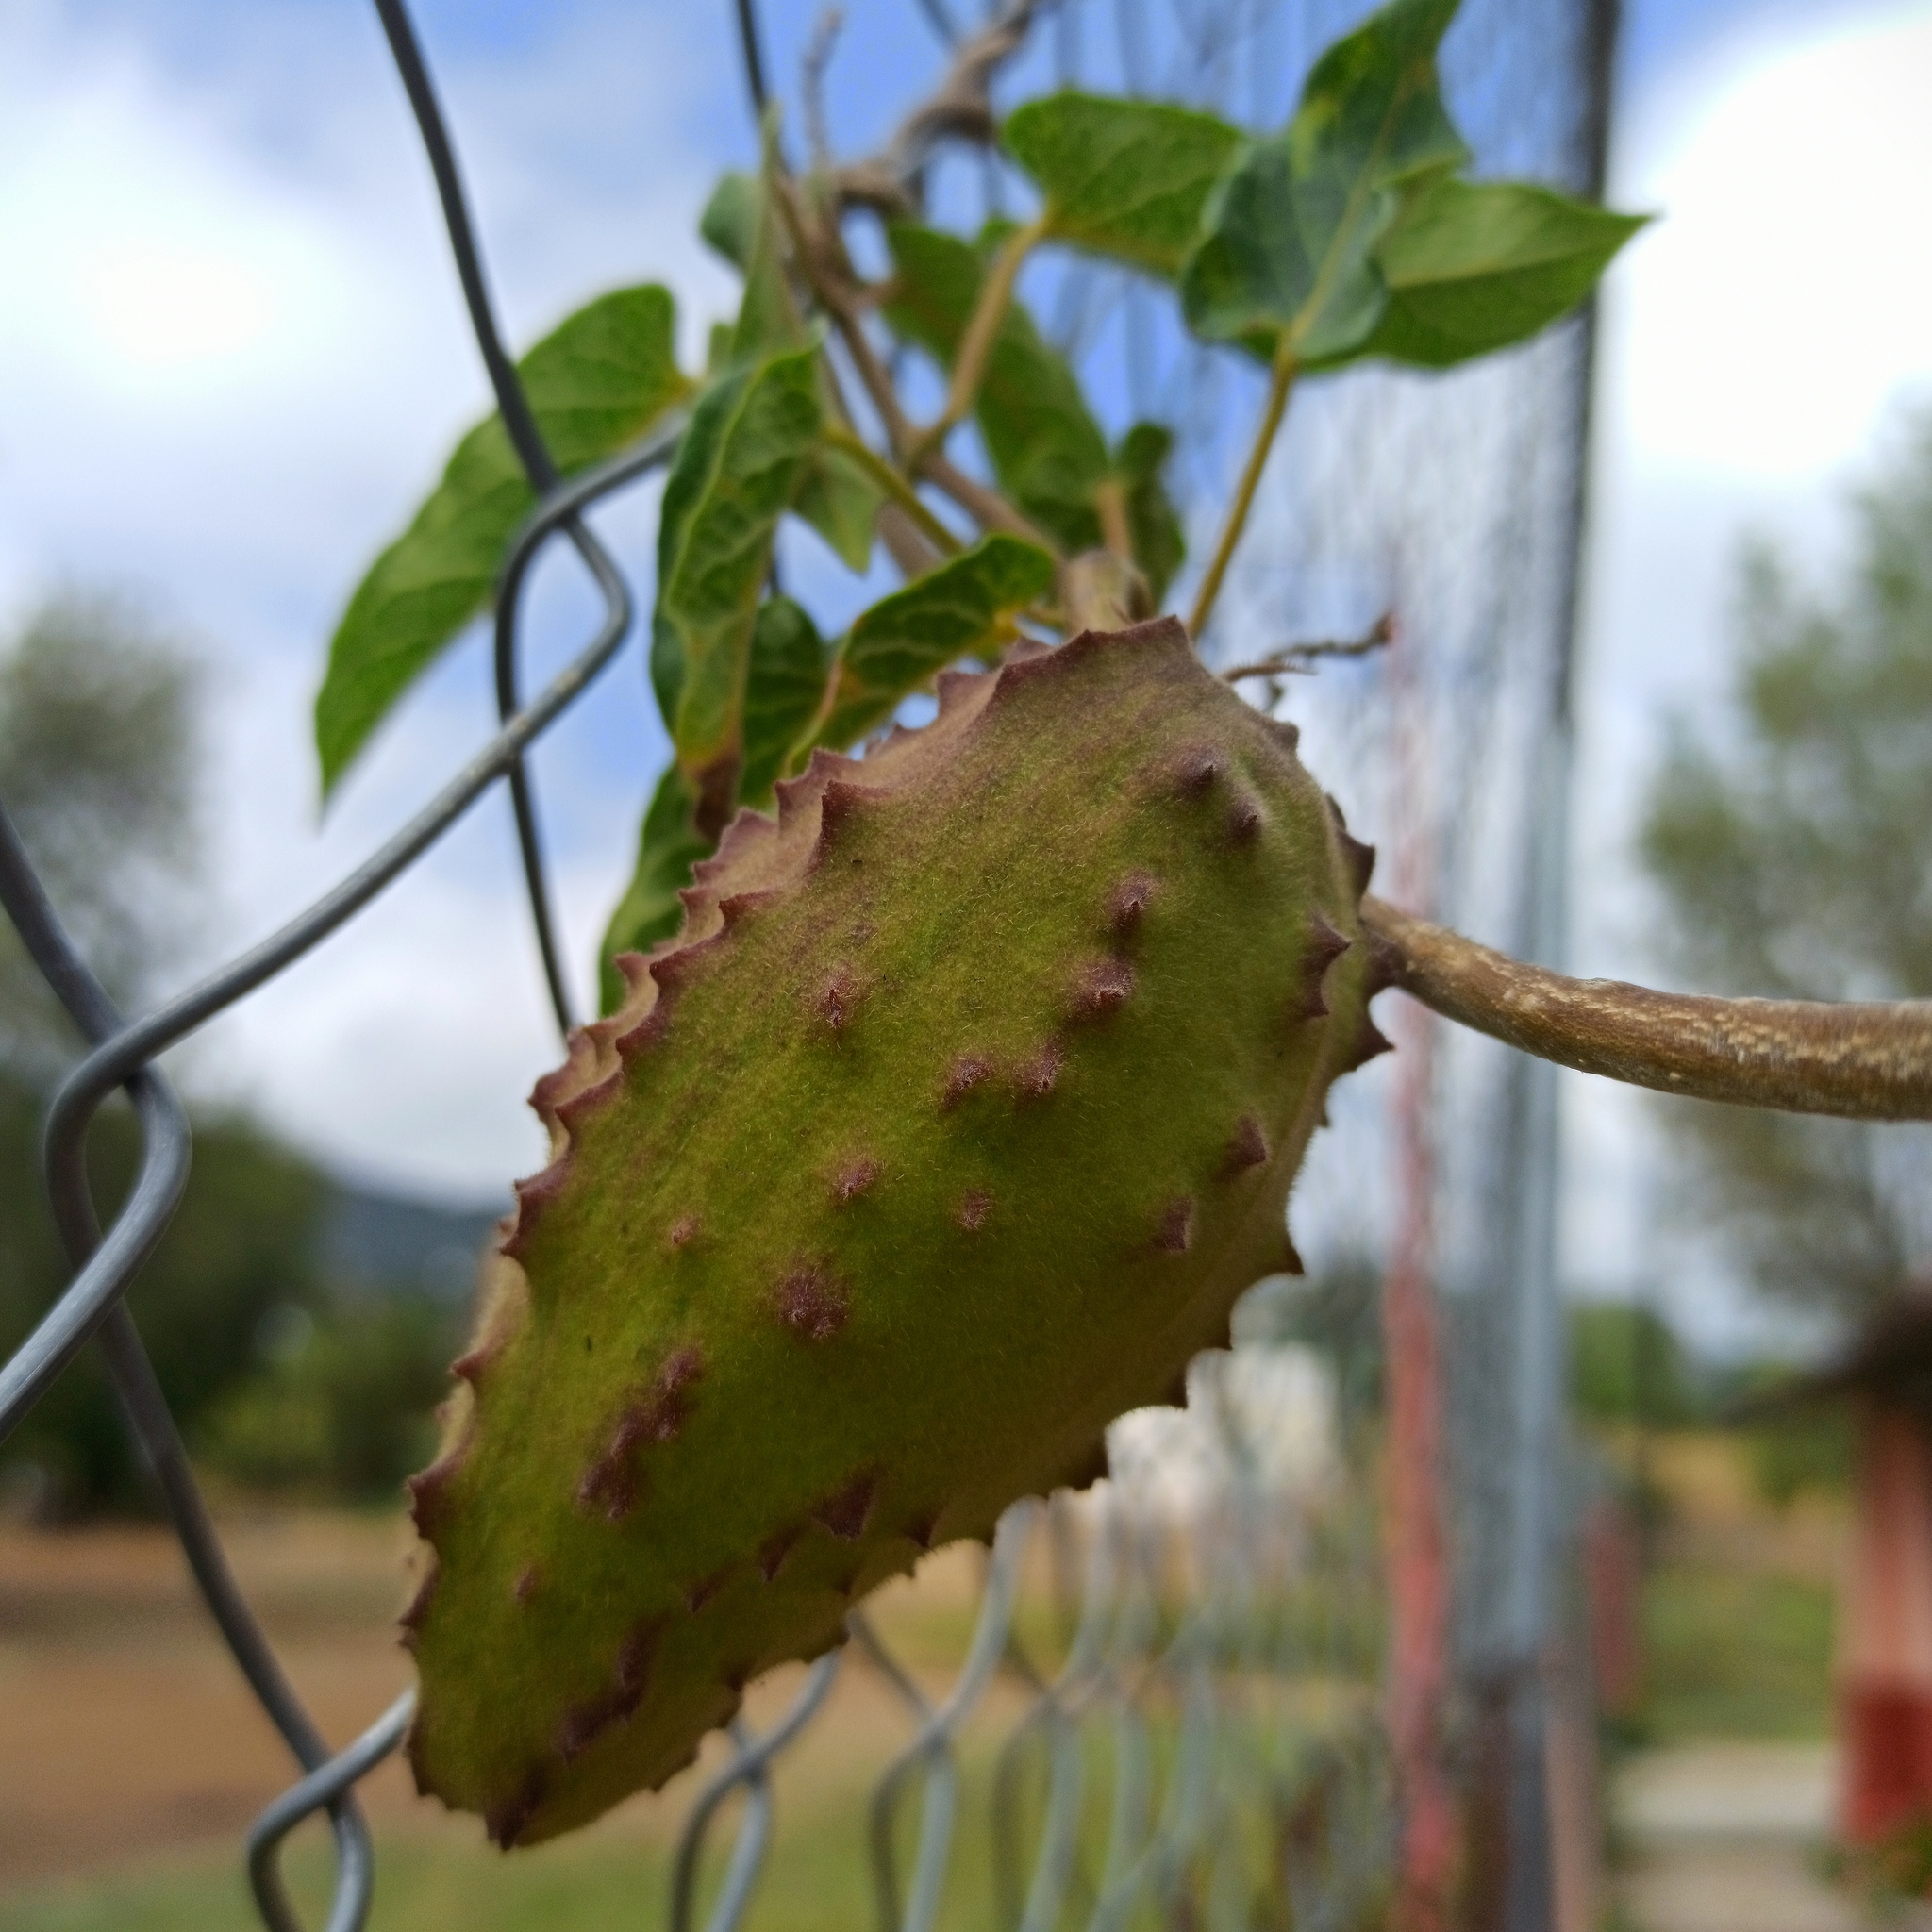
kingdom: Plantae
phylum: Tracheophyta
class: Magnoliopsida
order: Gentianales
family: Apocynaceae
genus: Gonolobus
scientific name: Gonolobus grandiflorus
